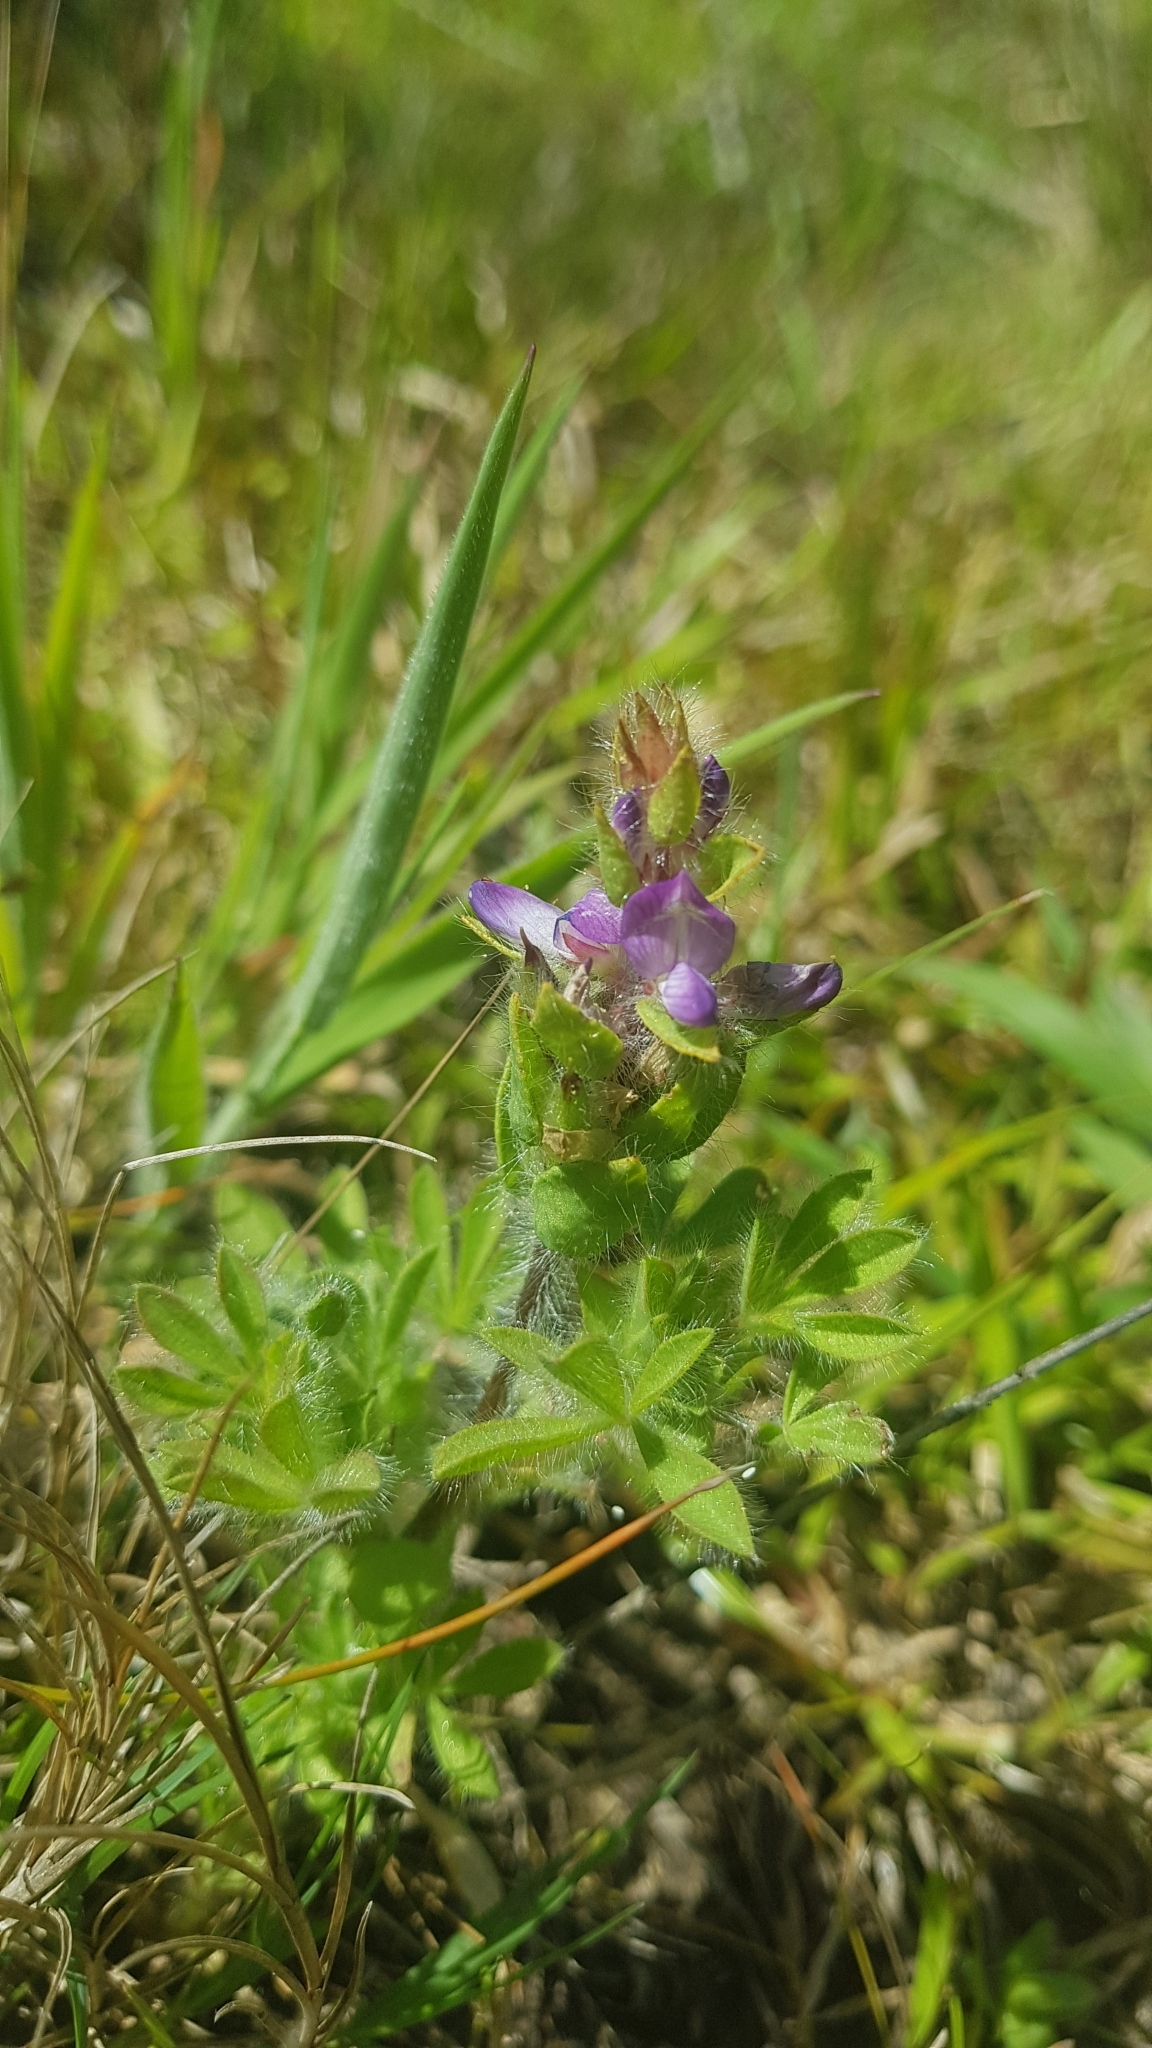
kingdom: Plantae
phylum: Tracheophyta
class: Magnoliopsida
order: Fabales
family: Fabaceae
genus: Lupinus
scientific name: Lupinus bracteolaris
